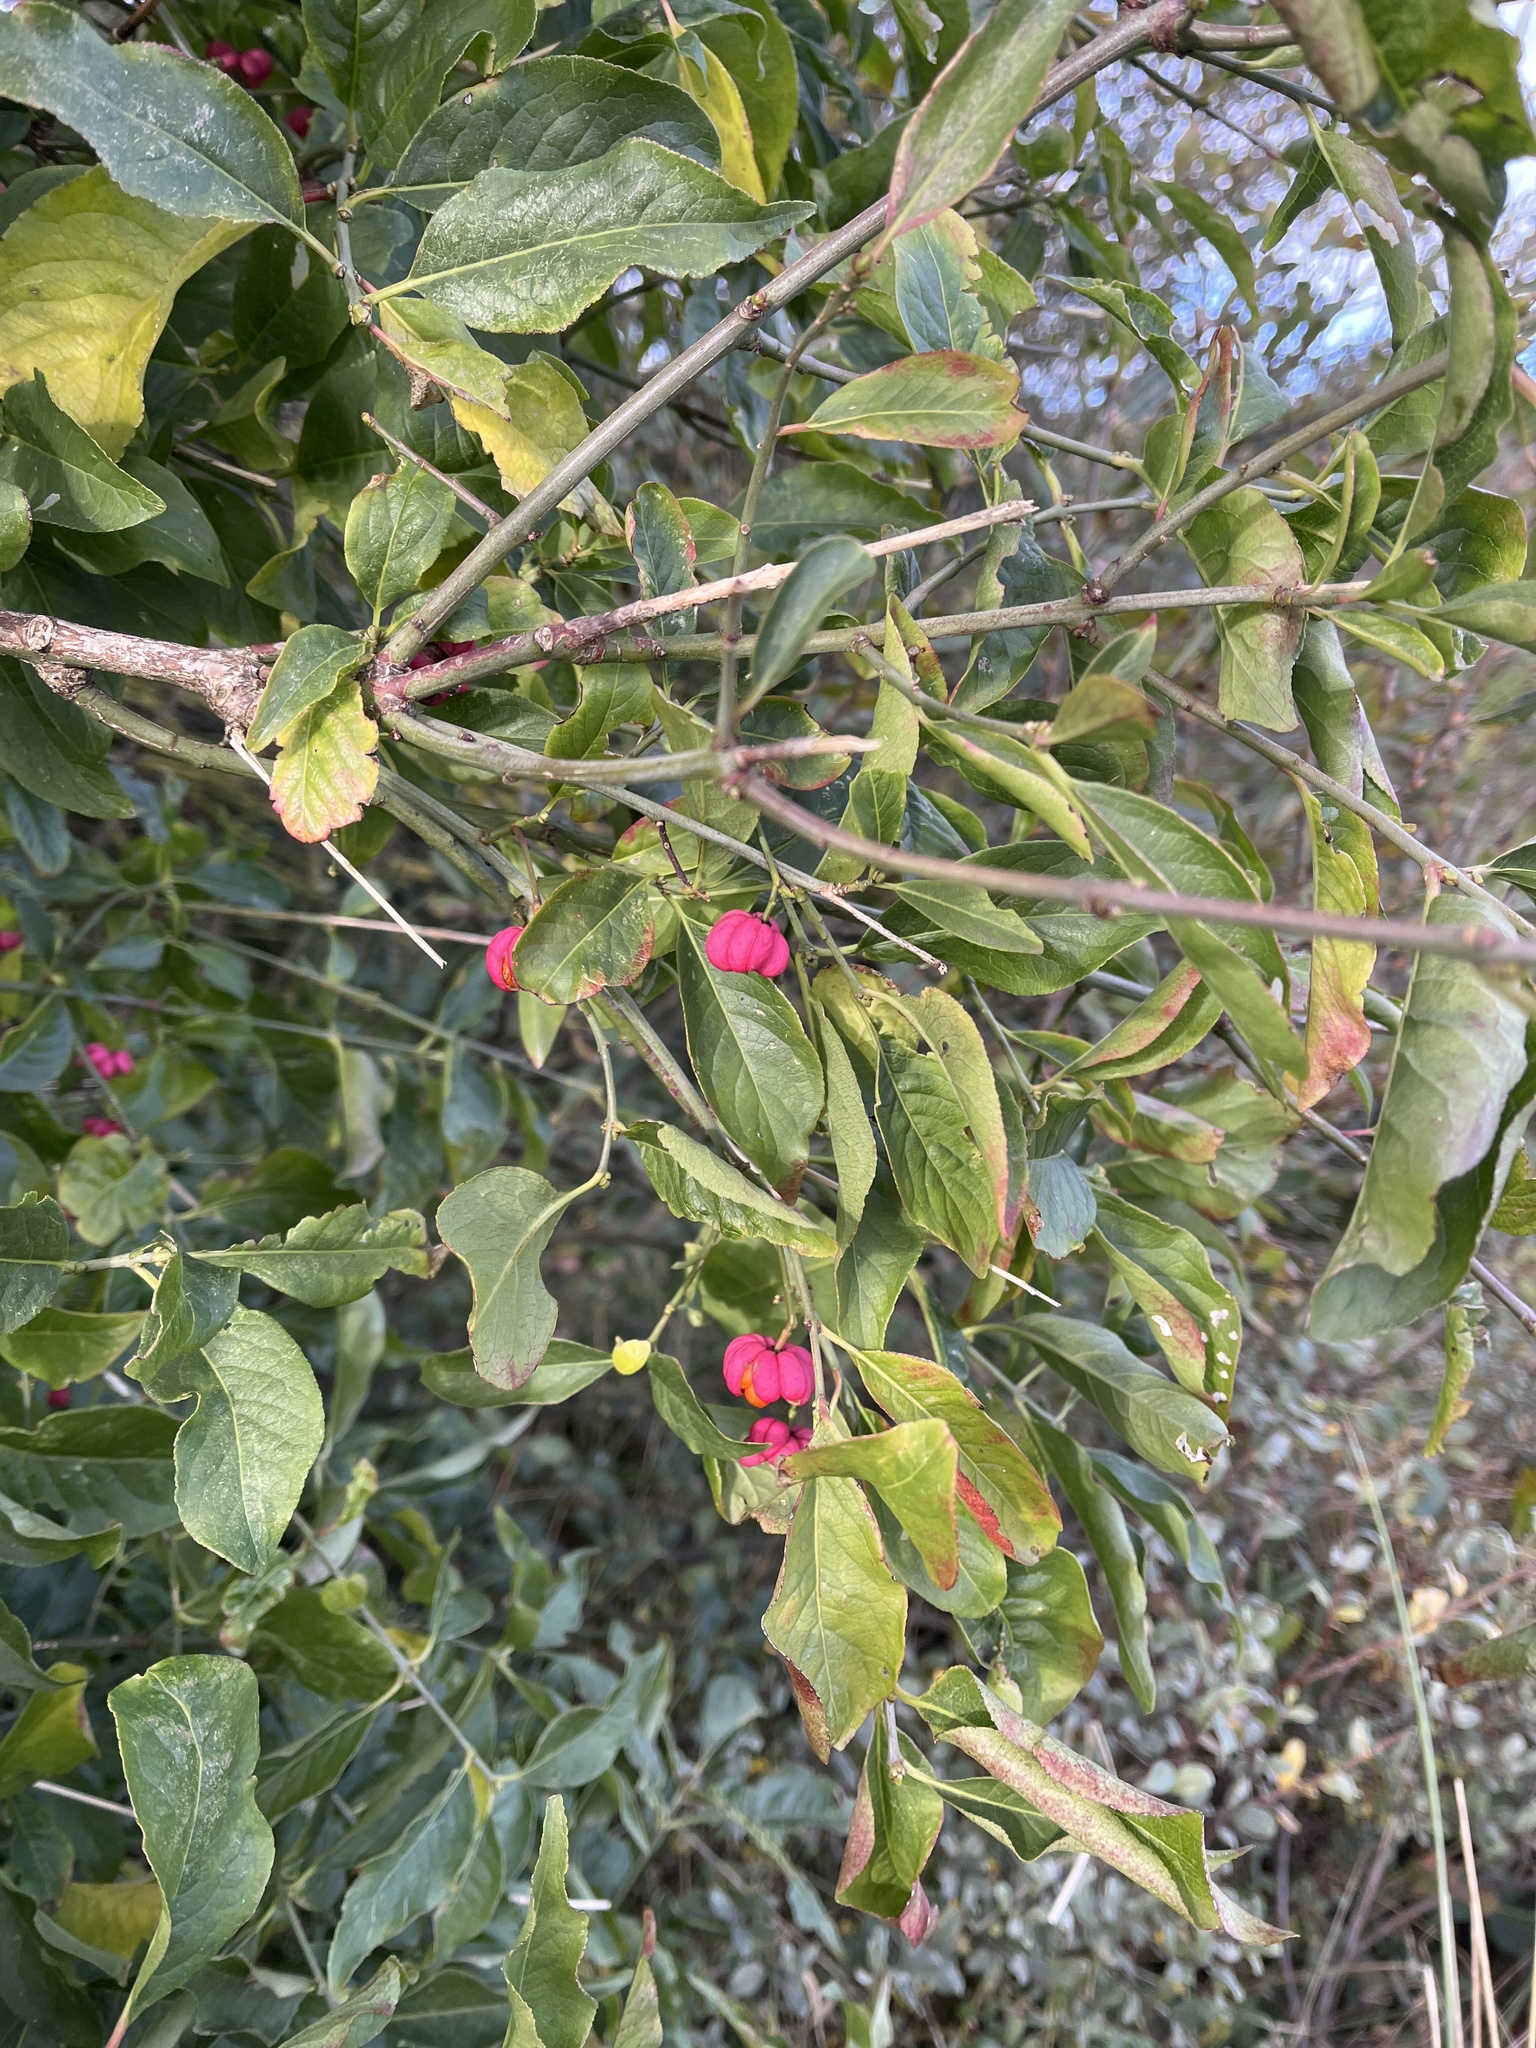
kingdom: Plantae
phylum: Tracheophyta
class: Magnoliopsida
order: Celastrales
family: Celastraceae
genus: Euonymus
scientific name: Euonymus europaeus
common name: Spindle
